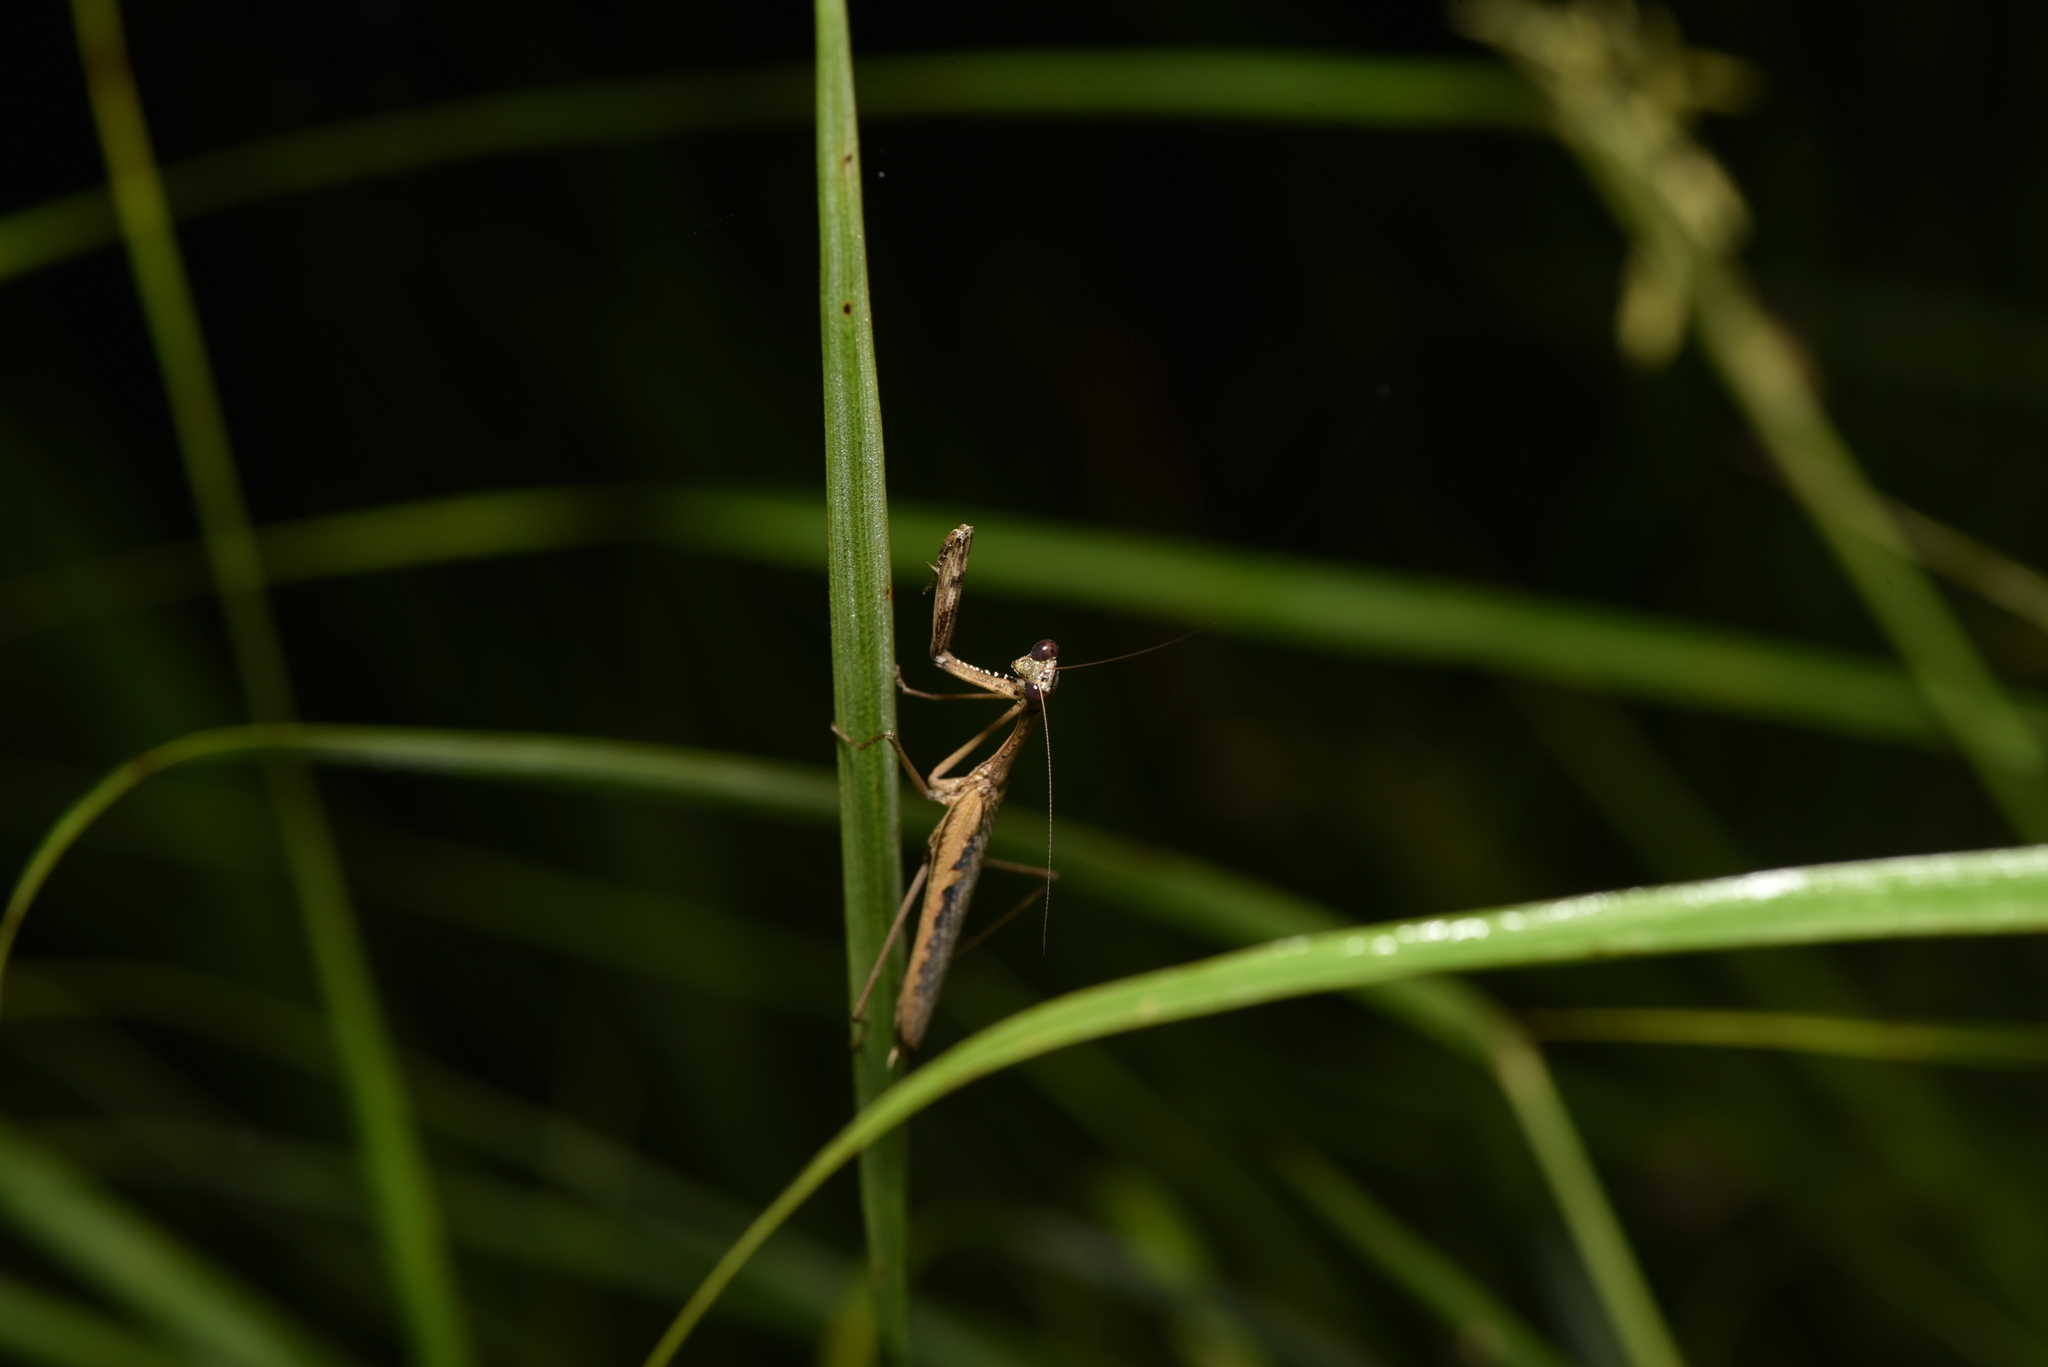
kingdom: Animalia
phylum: Arthropoda
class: Insecta
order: Mantodea
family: Mantidae
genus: Statilia
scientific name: Statilia nemoralis
